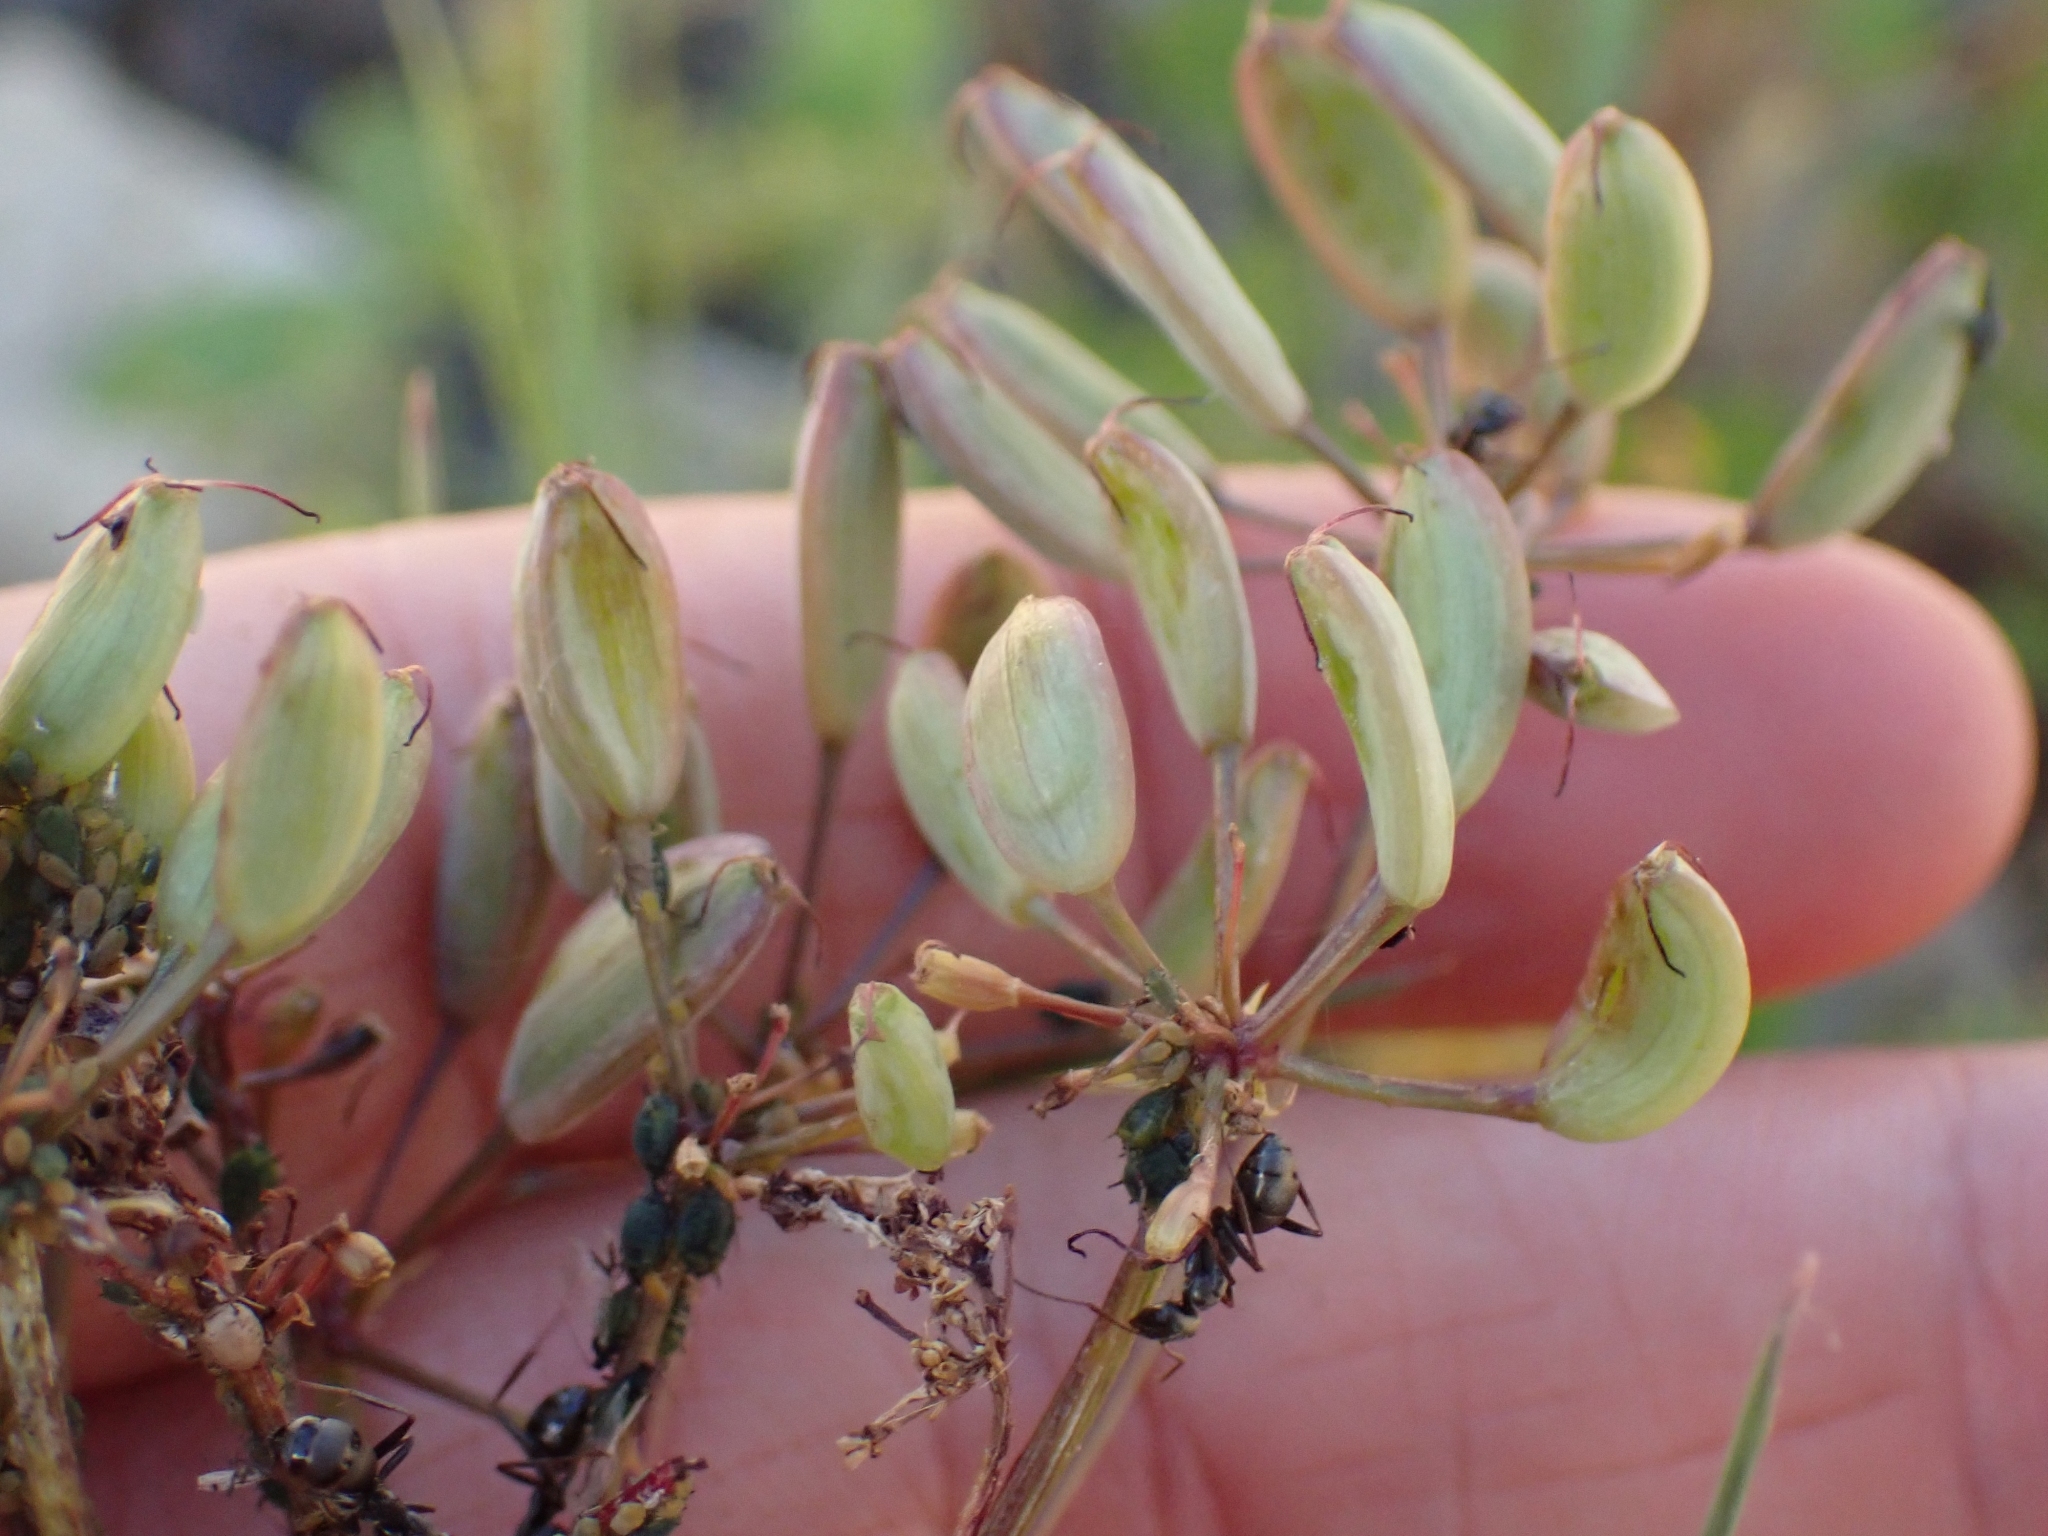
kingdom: Plantae
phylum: Tracheophyta
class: Magnoliopsida
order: Apiales
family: Apiaceae
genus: Lomatium
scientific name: Lomatium multifidum
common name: Carrot-leaved biscuitroot
